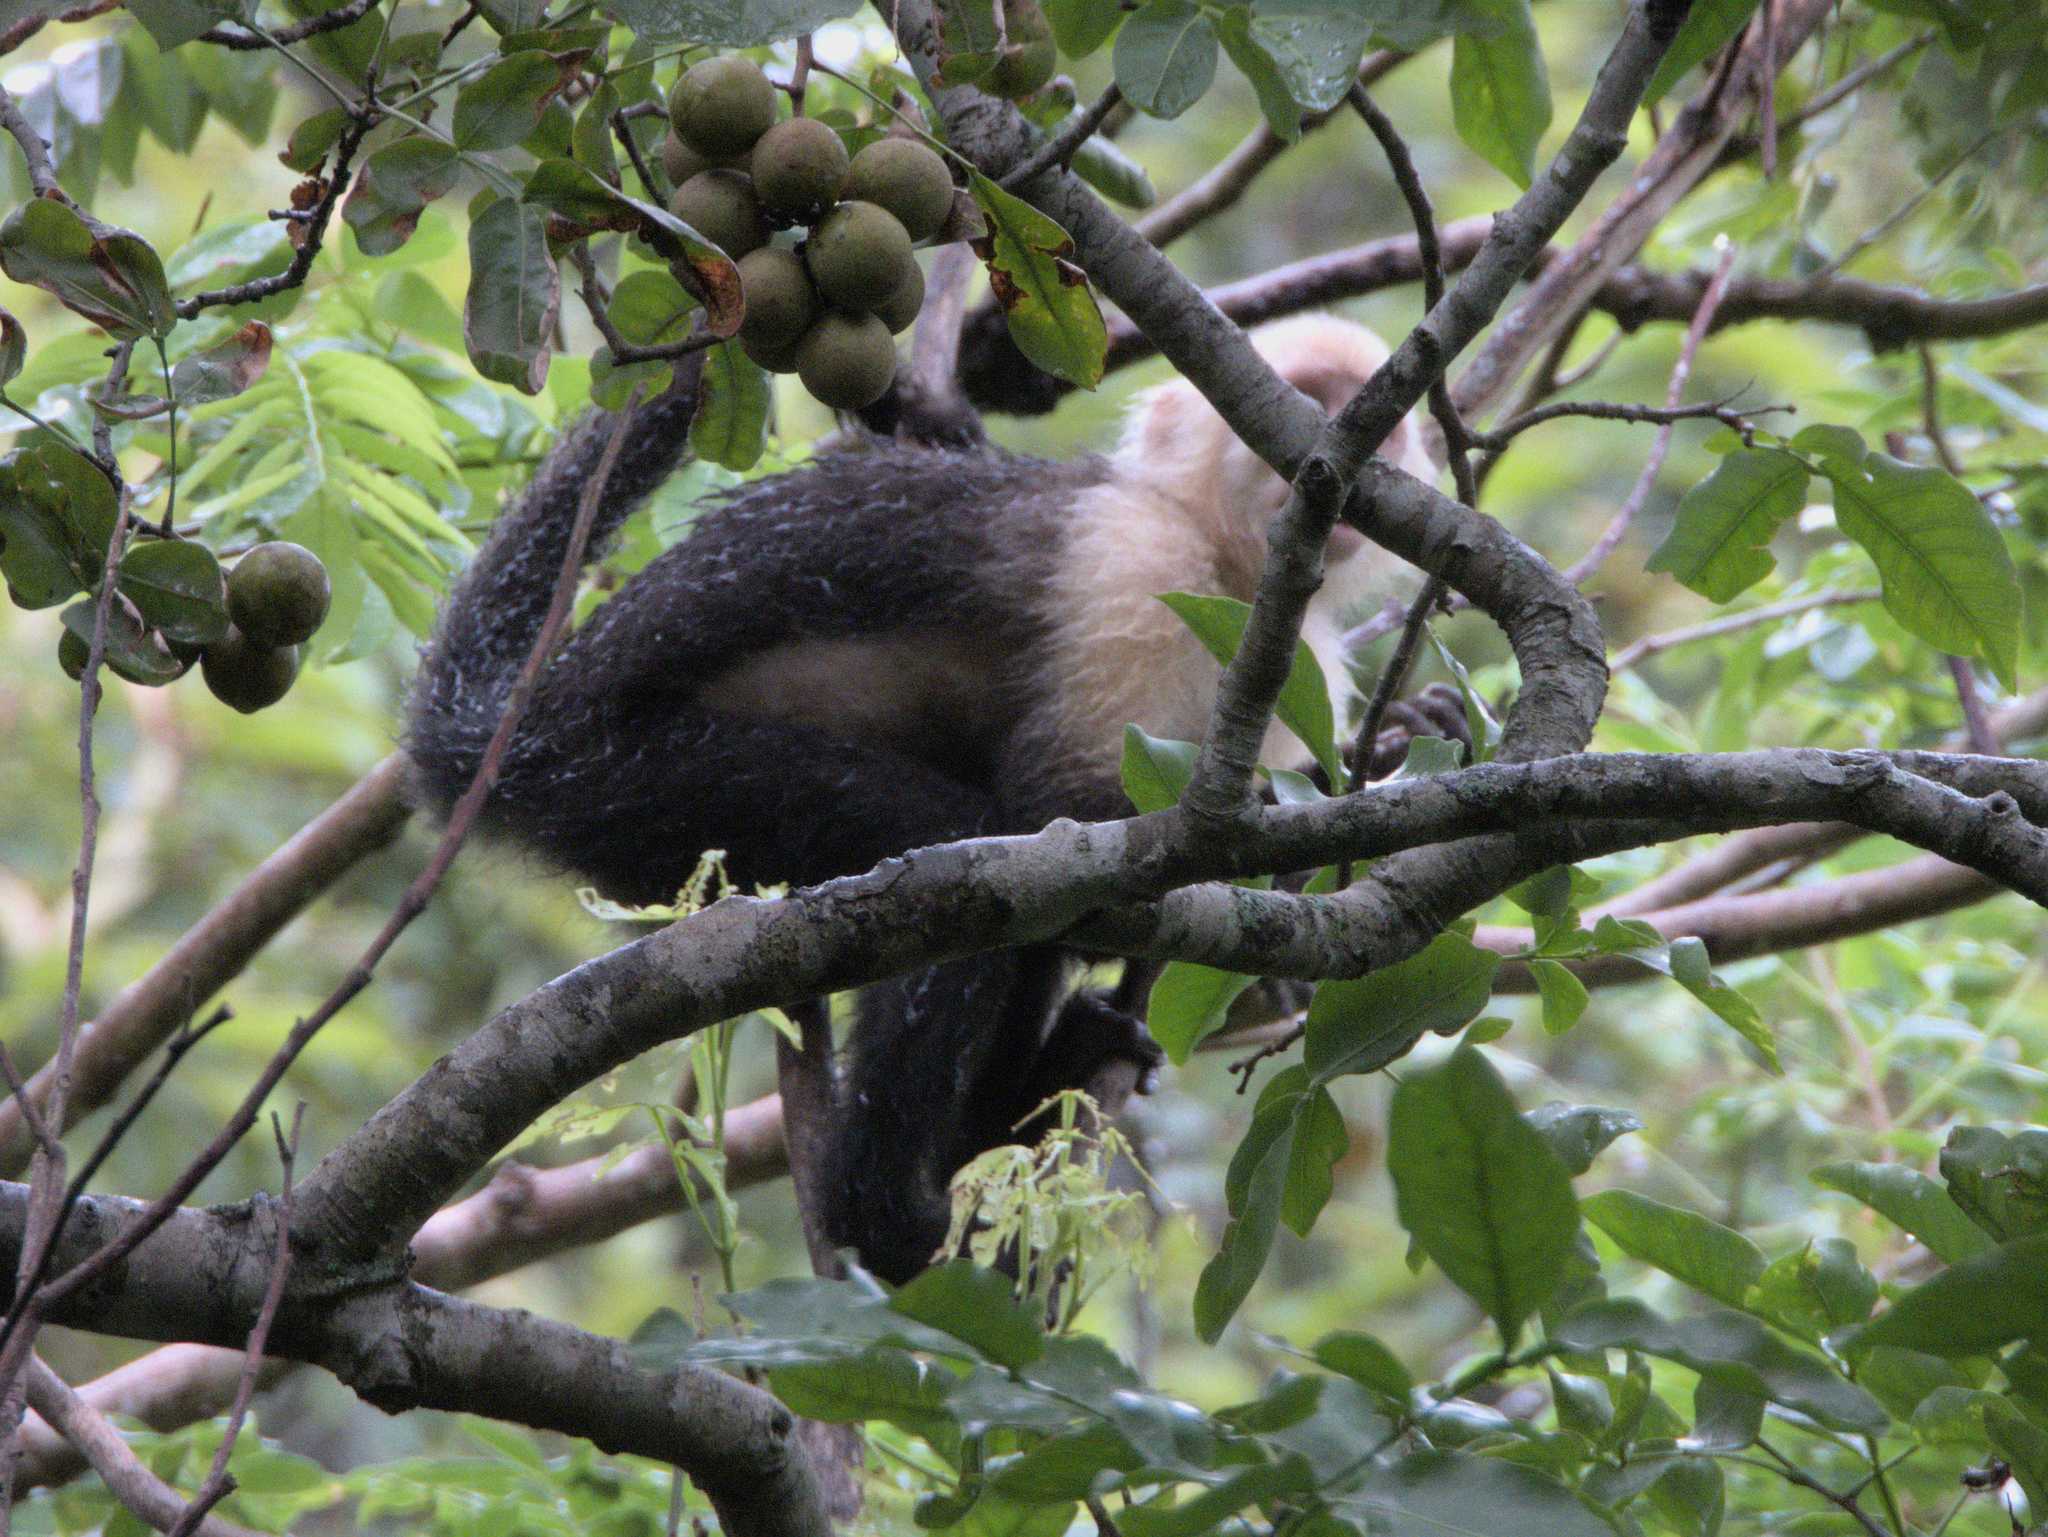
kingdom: Animalia
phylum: Chordata
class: Mammalia
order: Primates
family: Cebidae
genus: Cebus
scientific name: Cebus imitator
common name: Panamanian white-faced capuchin
